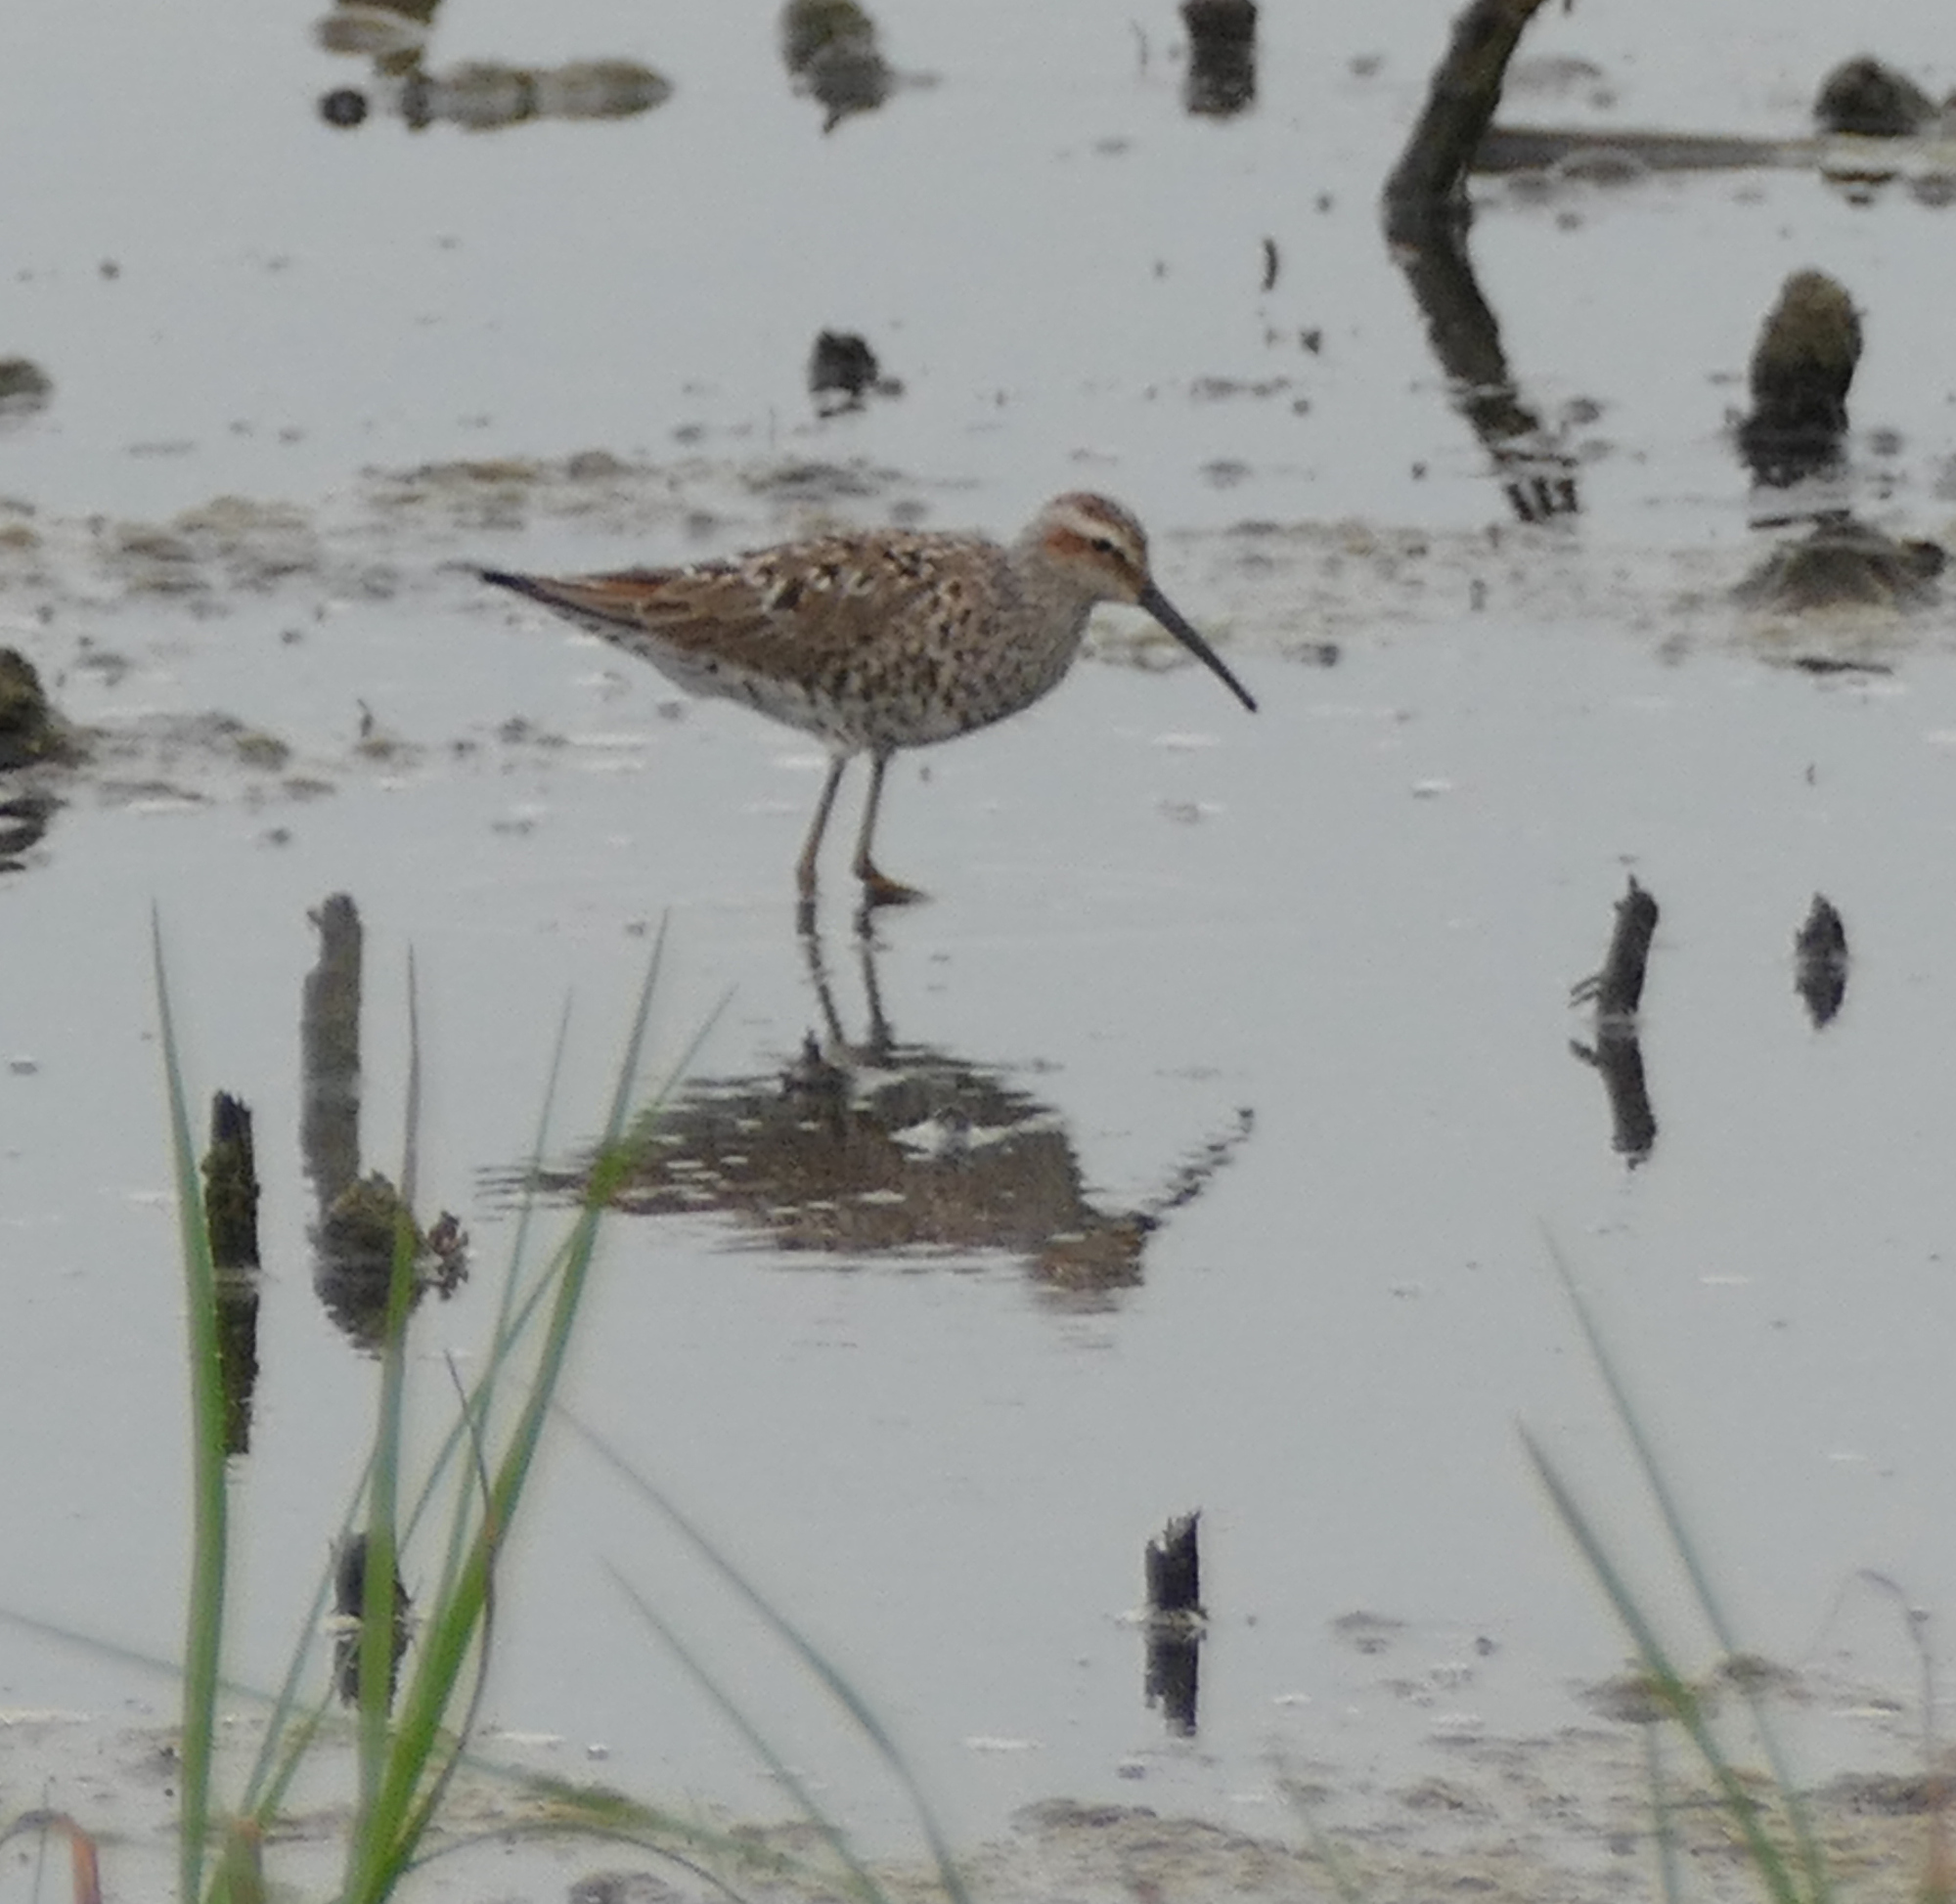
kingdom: Animalia
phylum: Chordata
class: Aves
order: Charadriiformes
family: Scolopacidae
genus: Calidris
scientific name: Calidris himantopus
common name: Stilt sandpiper
